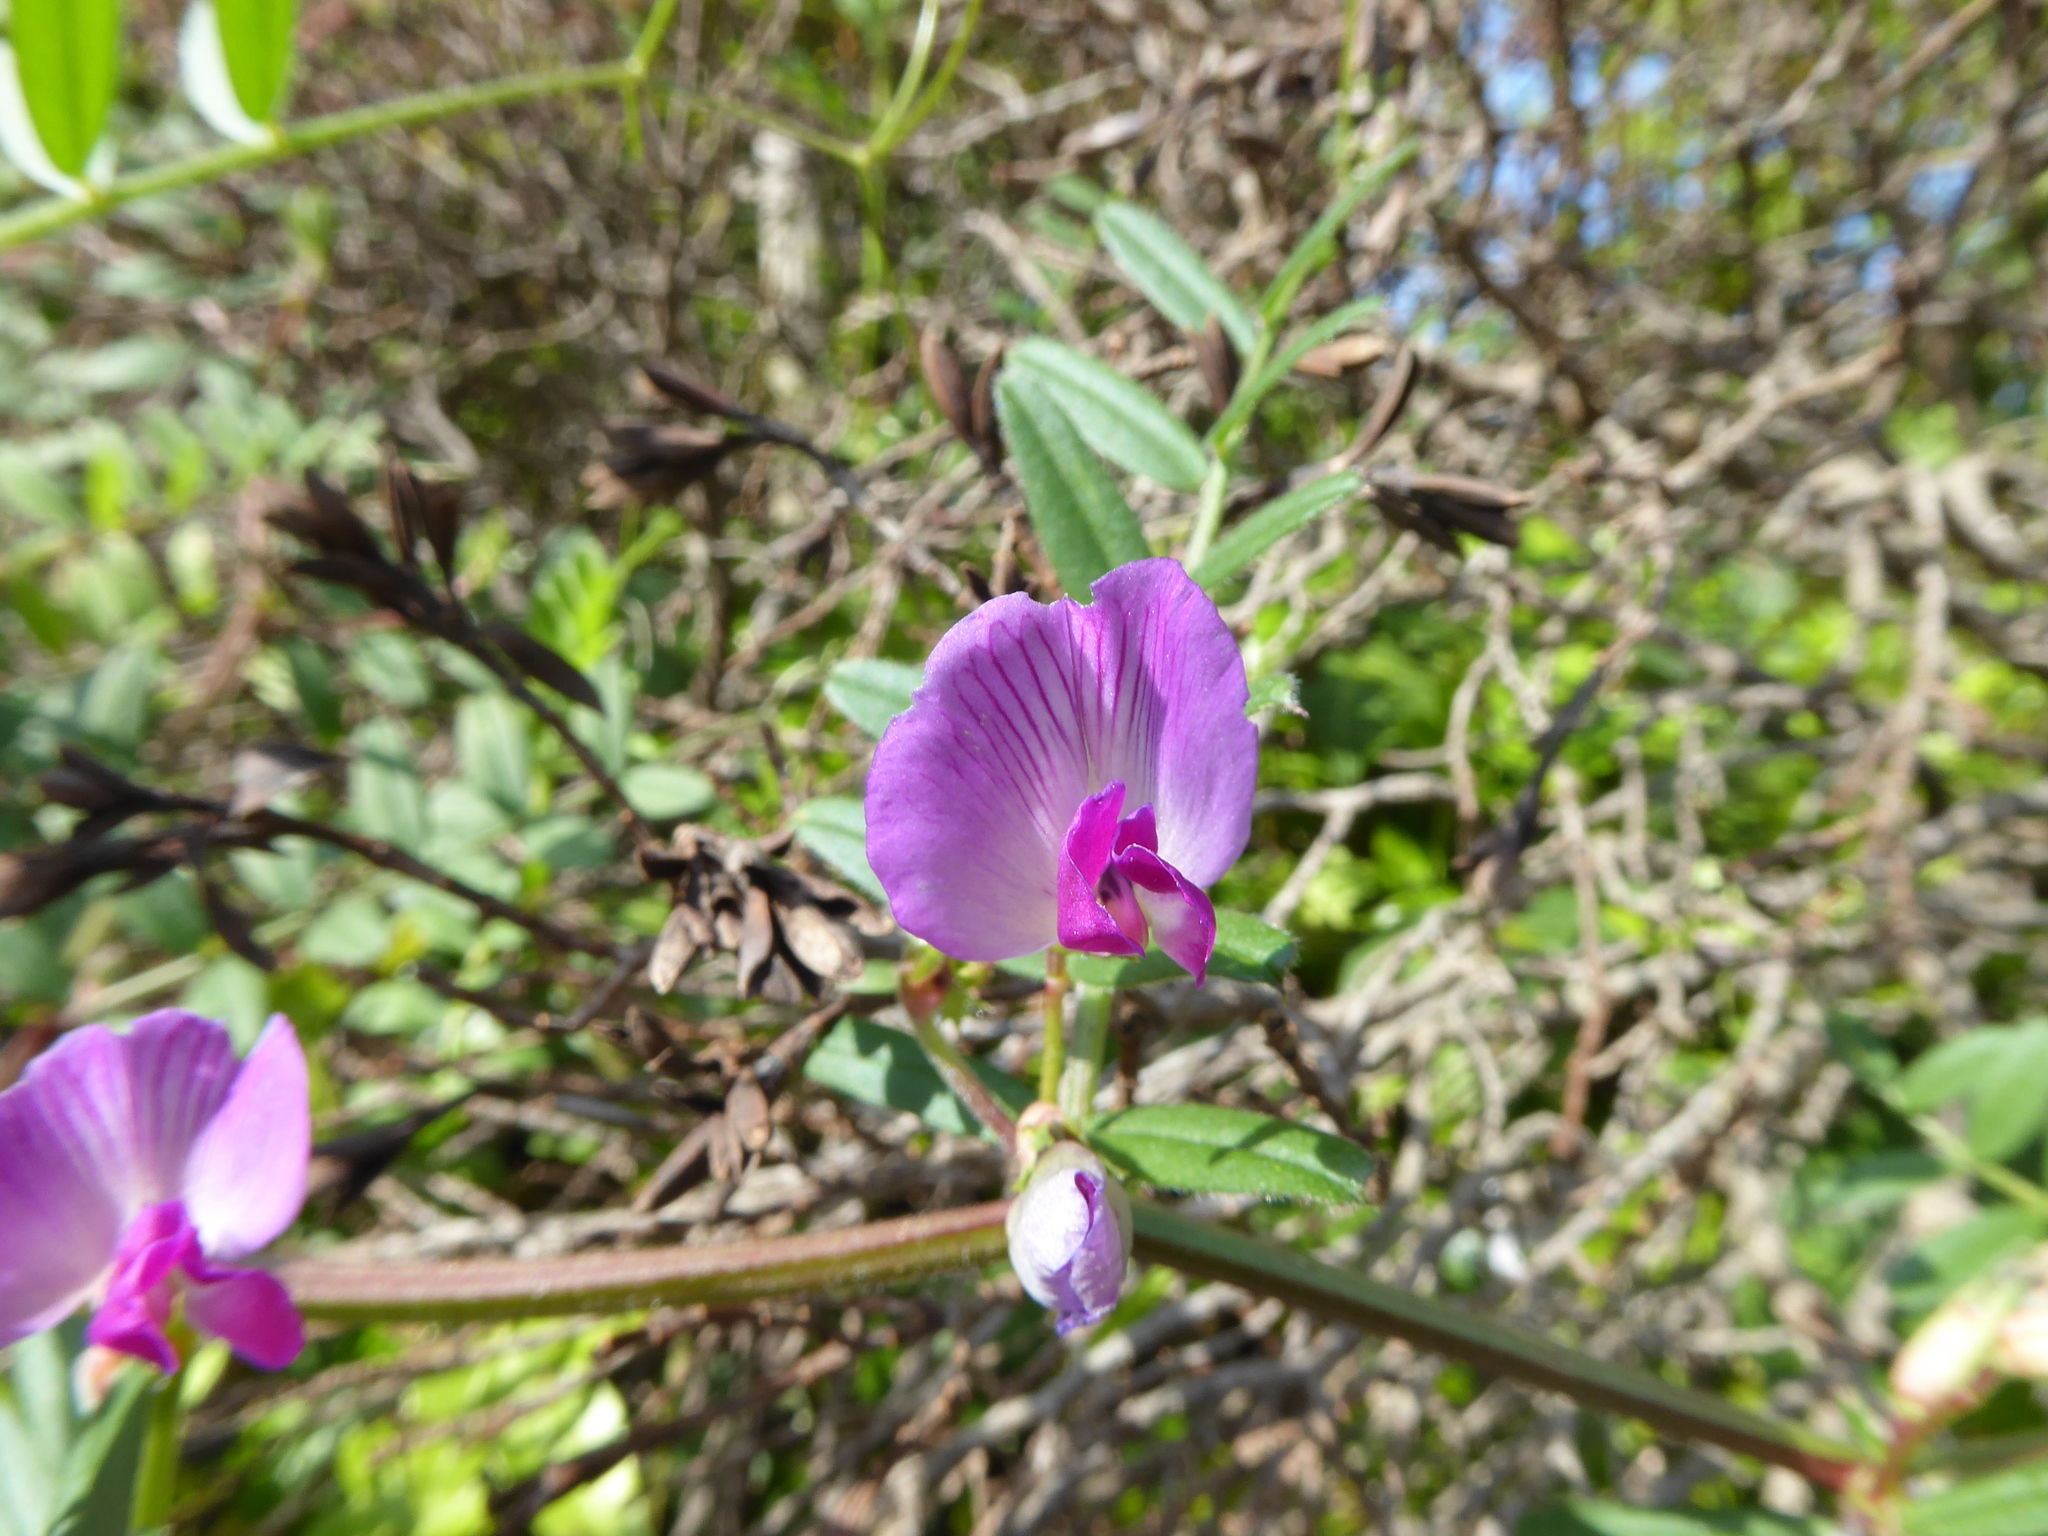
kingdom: Plantae
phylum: Tracheophyta
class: Magnoliopsida
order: Fabales
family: Fabaceae
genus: Vicia
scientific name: Vicia sativa
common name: Garden vetch
